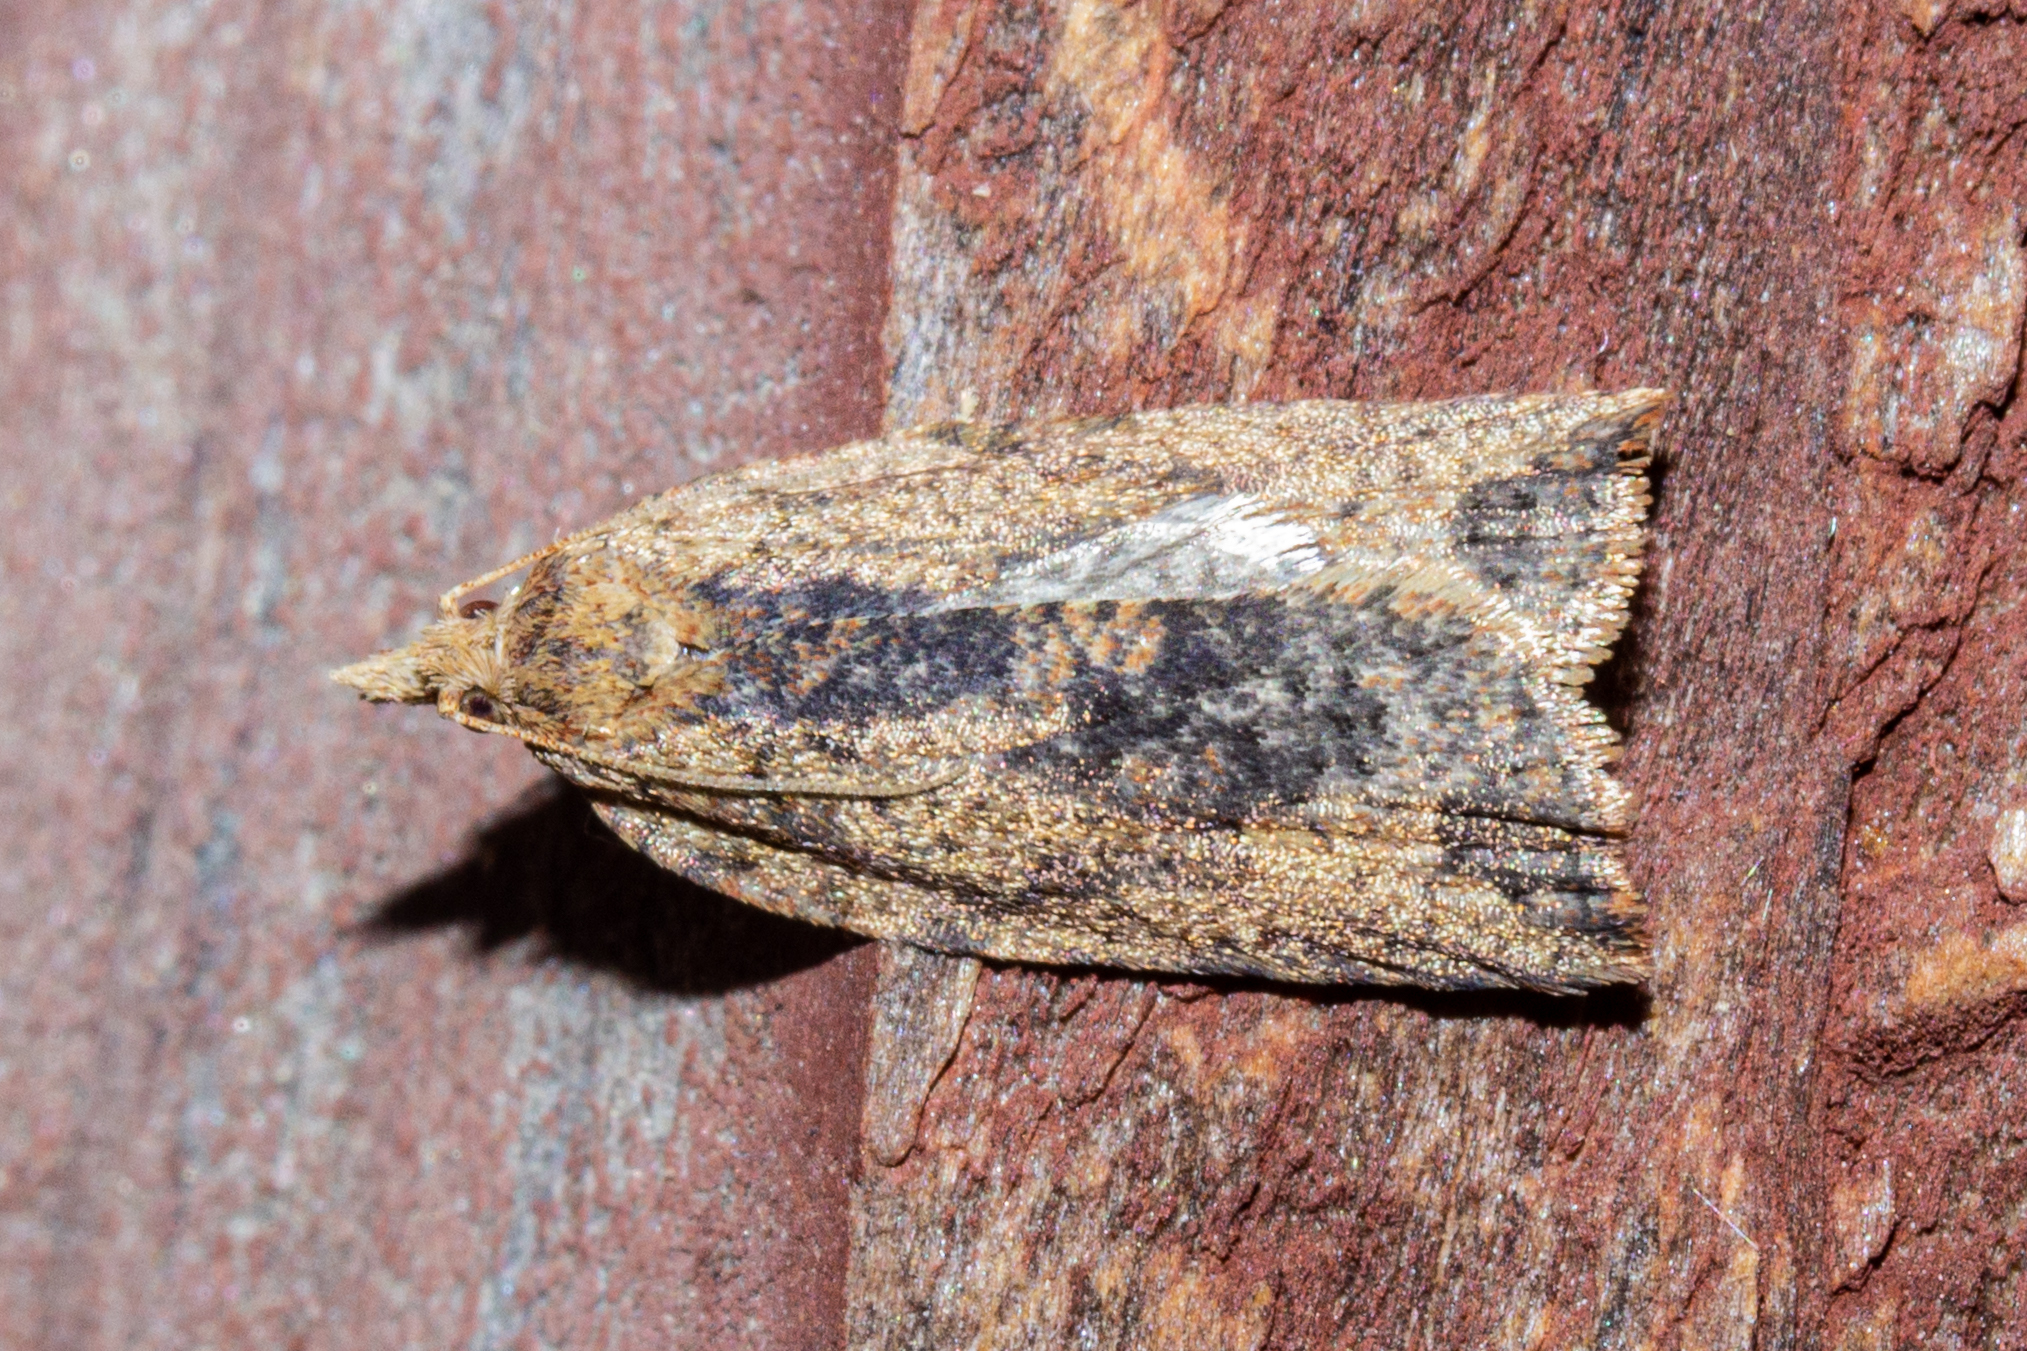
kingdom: Animalia
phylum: Arthropoda
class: Insecta
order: Lepidoptera
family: Tortricidae
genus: Epiphyas
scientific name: Epiphyas postvittana
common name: Light brown apple moth
